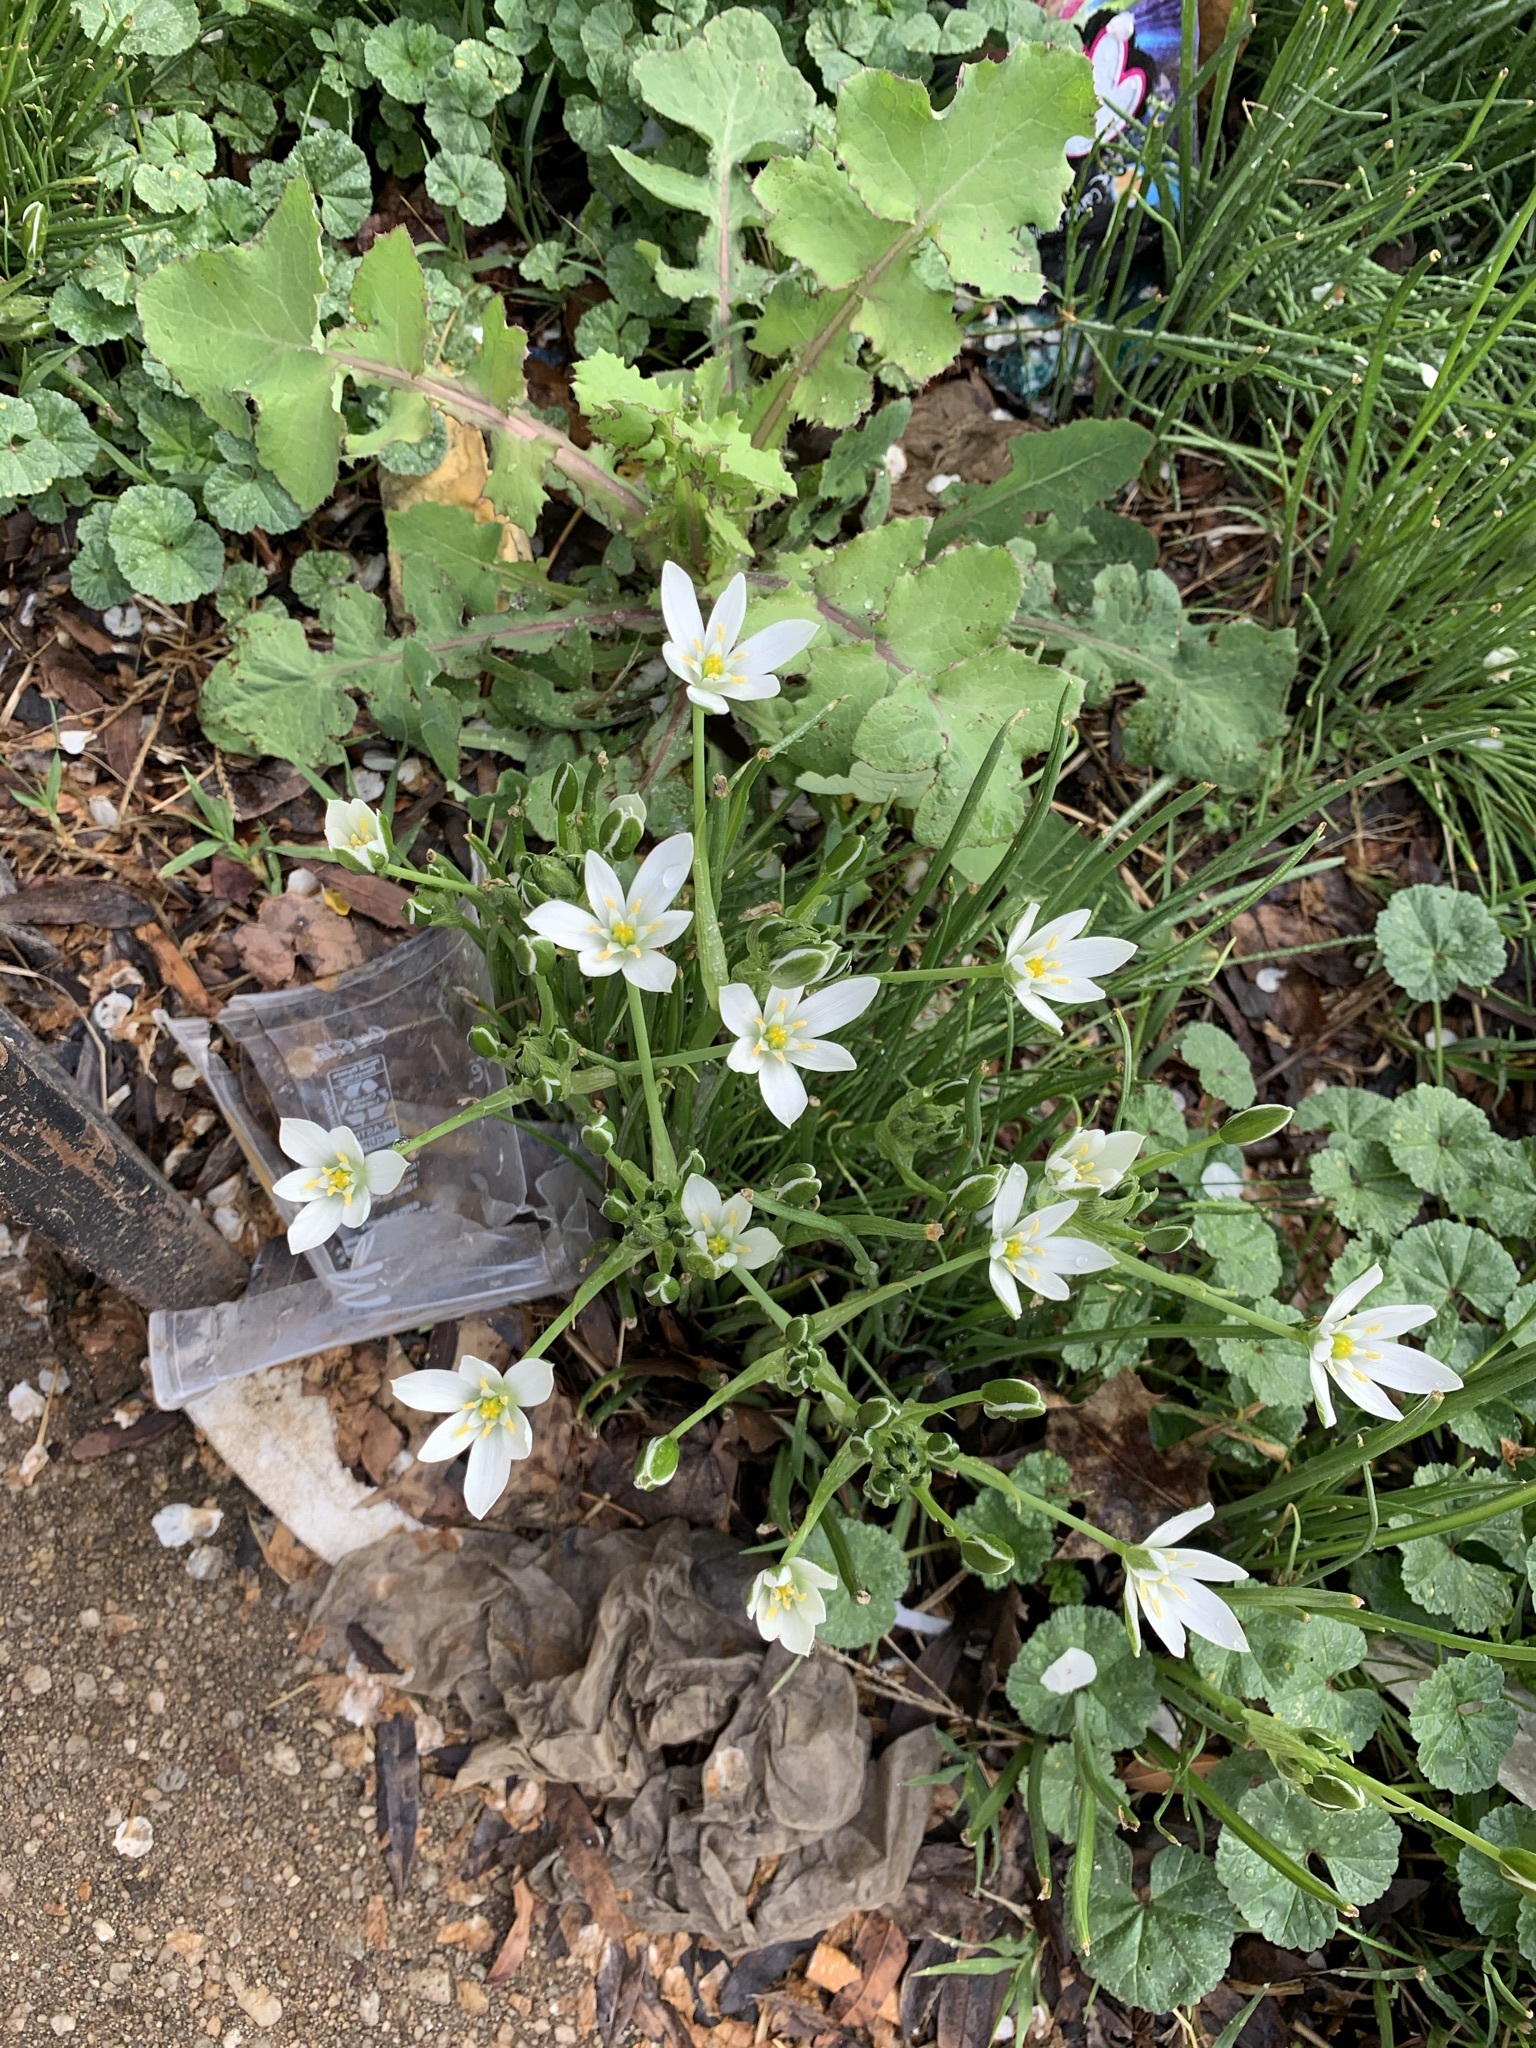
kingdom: Plantae
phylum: Tracheophyta
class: Liliopsida
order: Asparagales
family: Asparagaceae
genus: Ornithogalum
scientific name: Ornithogalum umbellatum
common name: Garden star-of-bethlehem
